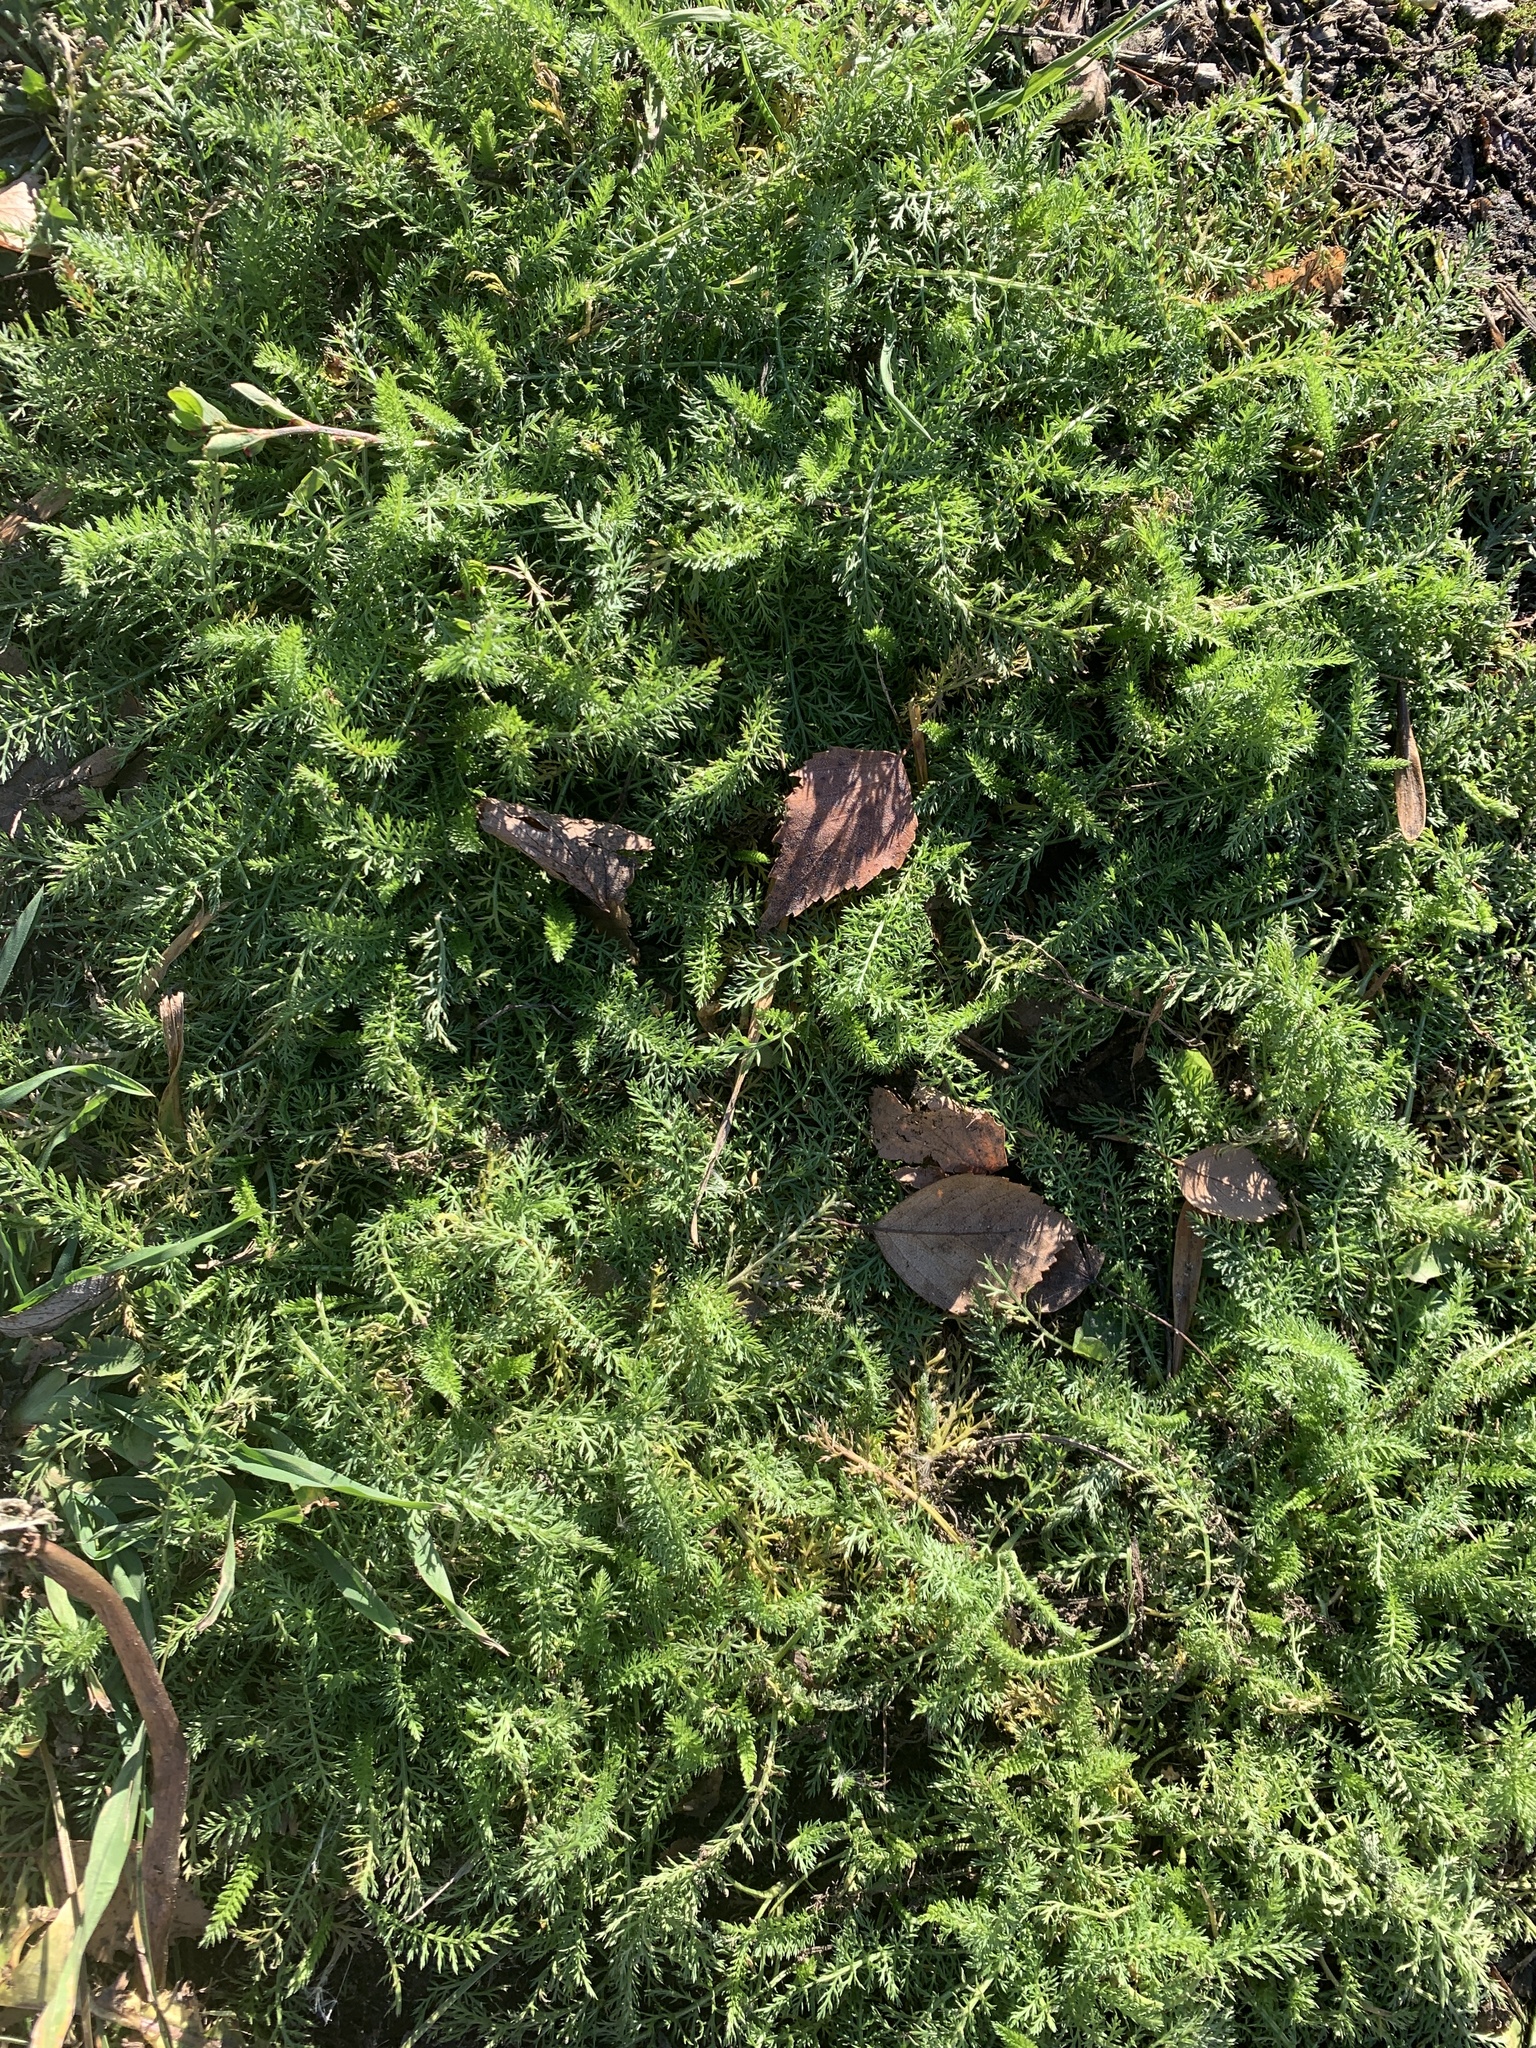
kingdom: Plantae
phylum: Tracheophyta
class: Magnoliopsida
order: Asterales
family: Asteraceae
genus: Achillea
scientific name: Achillea millefolium
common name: Yarrow
